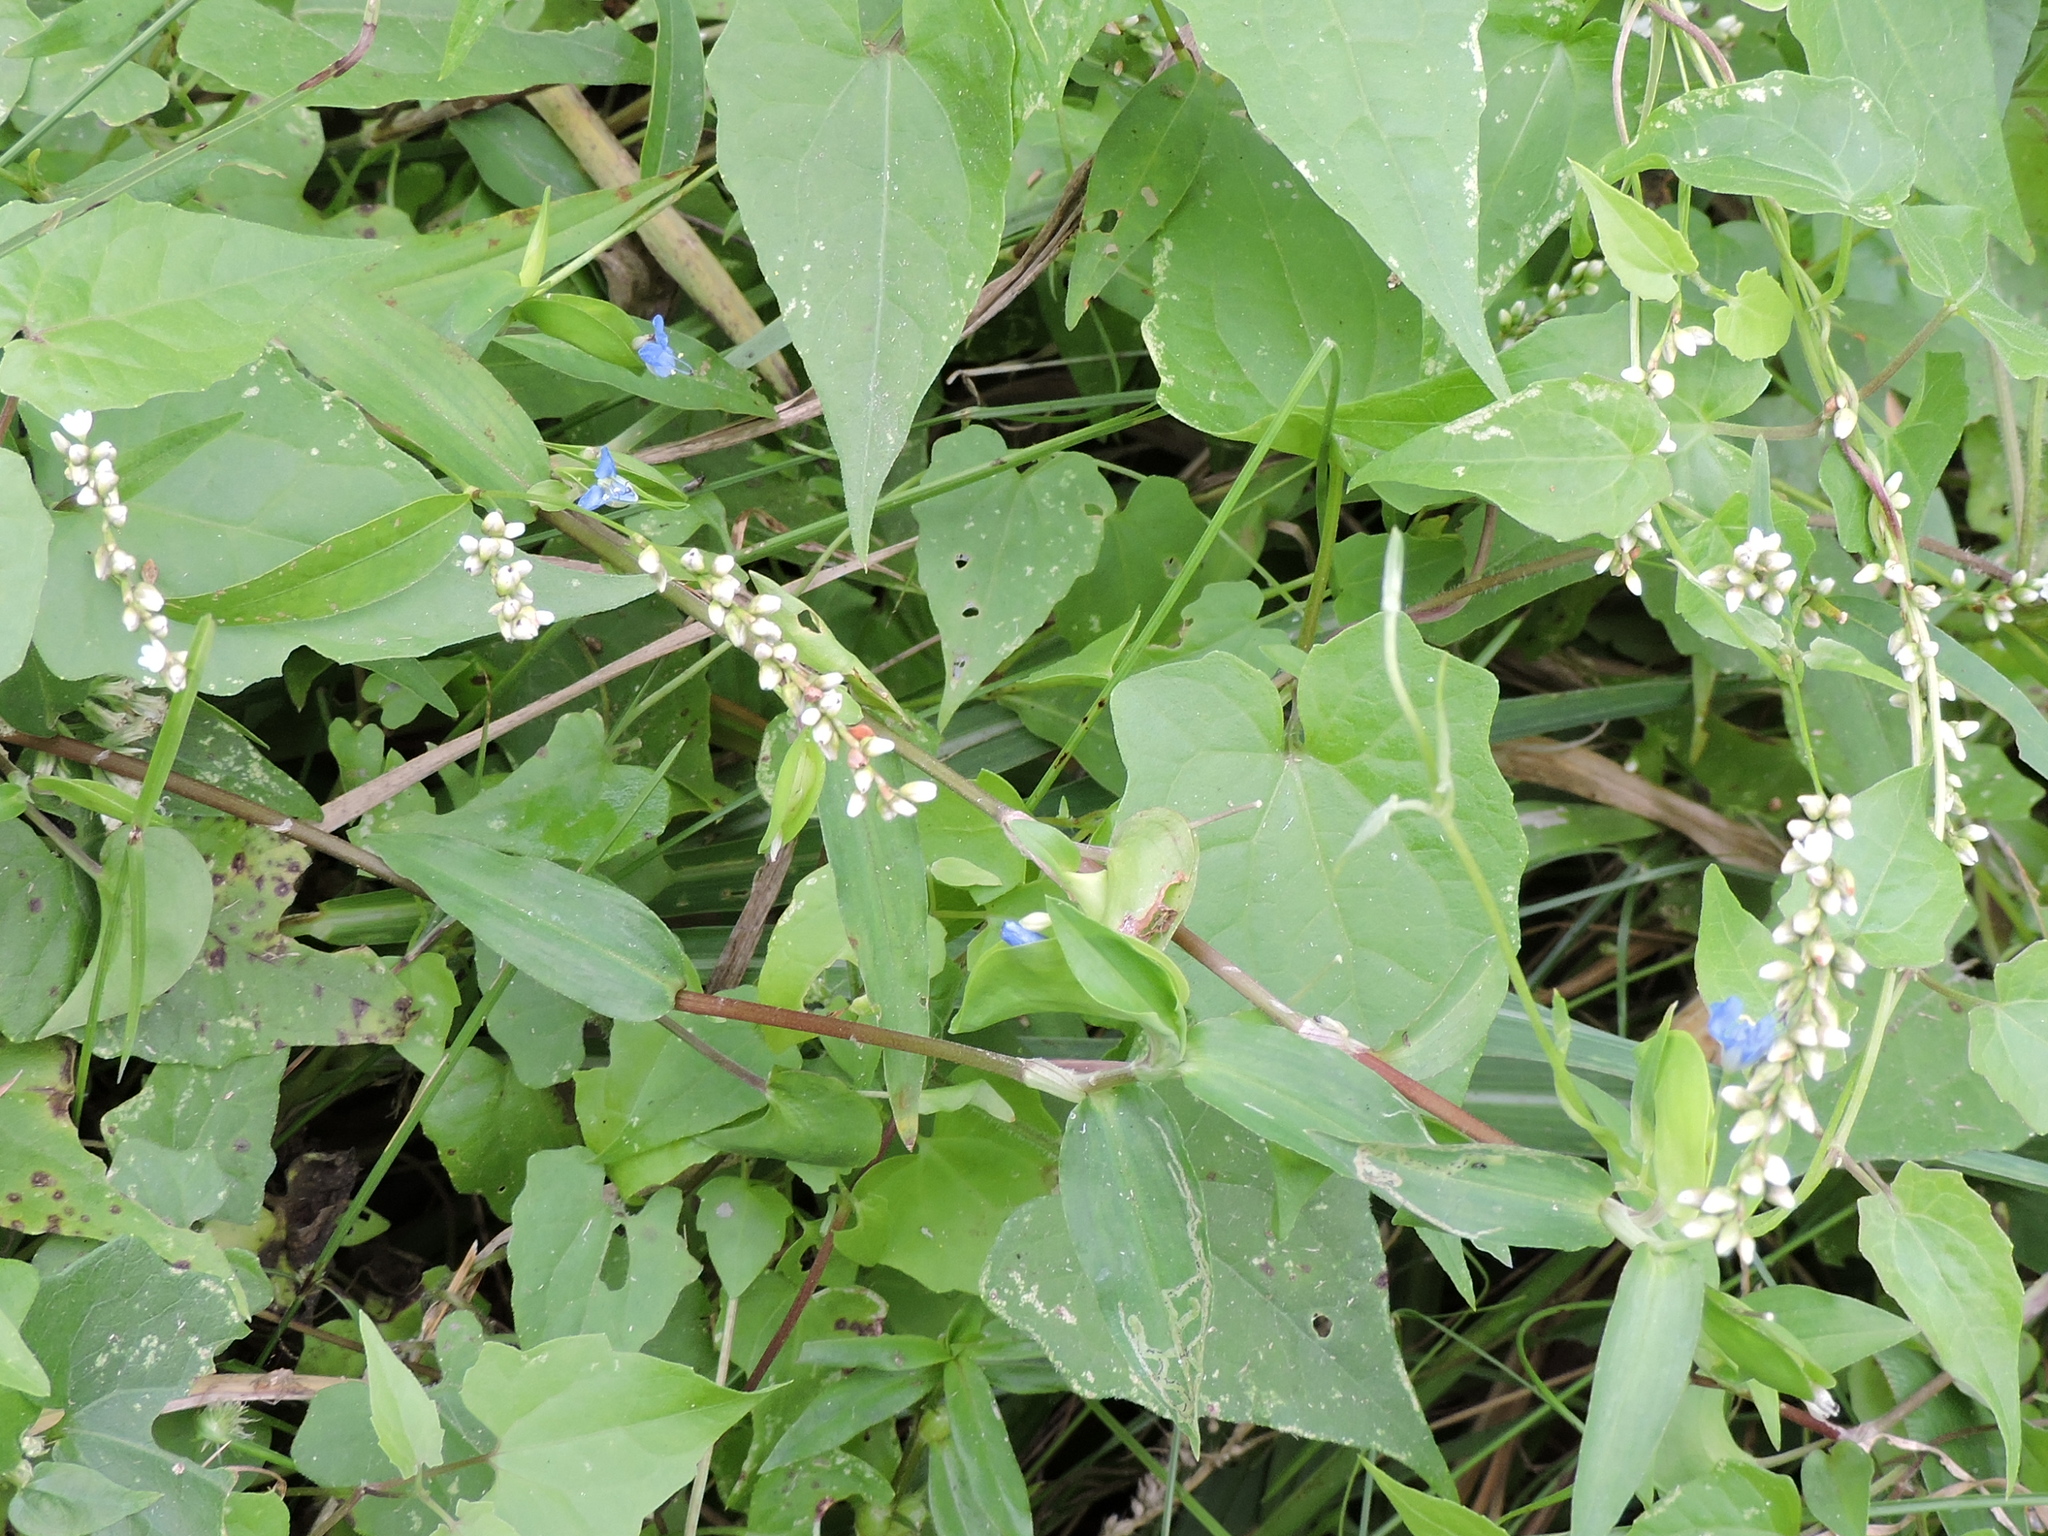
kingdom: Plantae
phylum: Tracheophyta
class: Liliopsida
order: Commelinales
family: Commelinaceae
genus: Commelina
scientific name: Commelina diffusa
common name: Climbing dayflower
